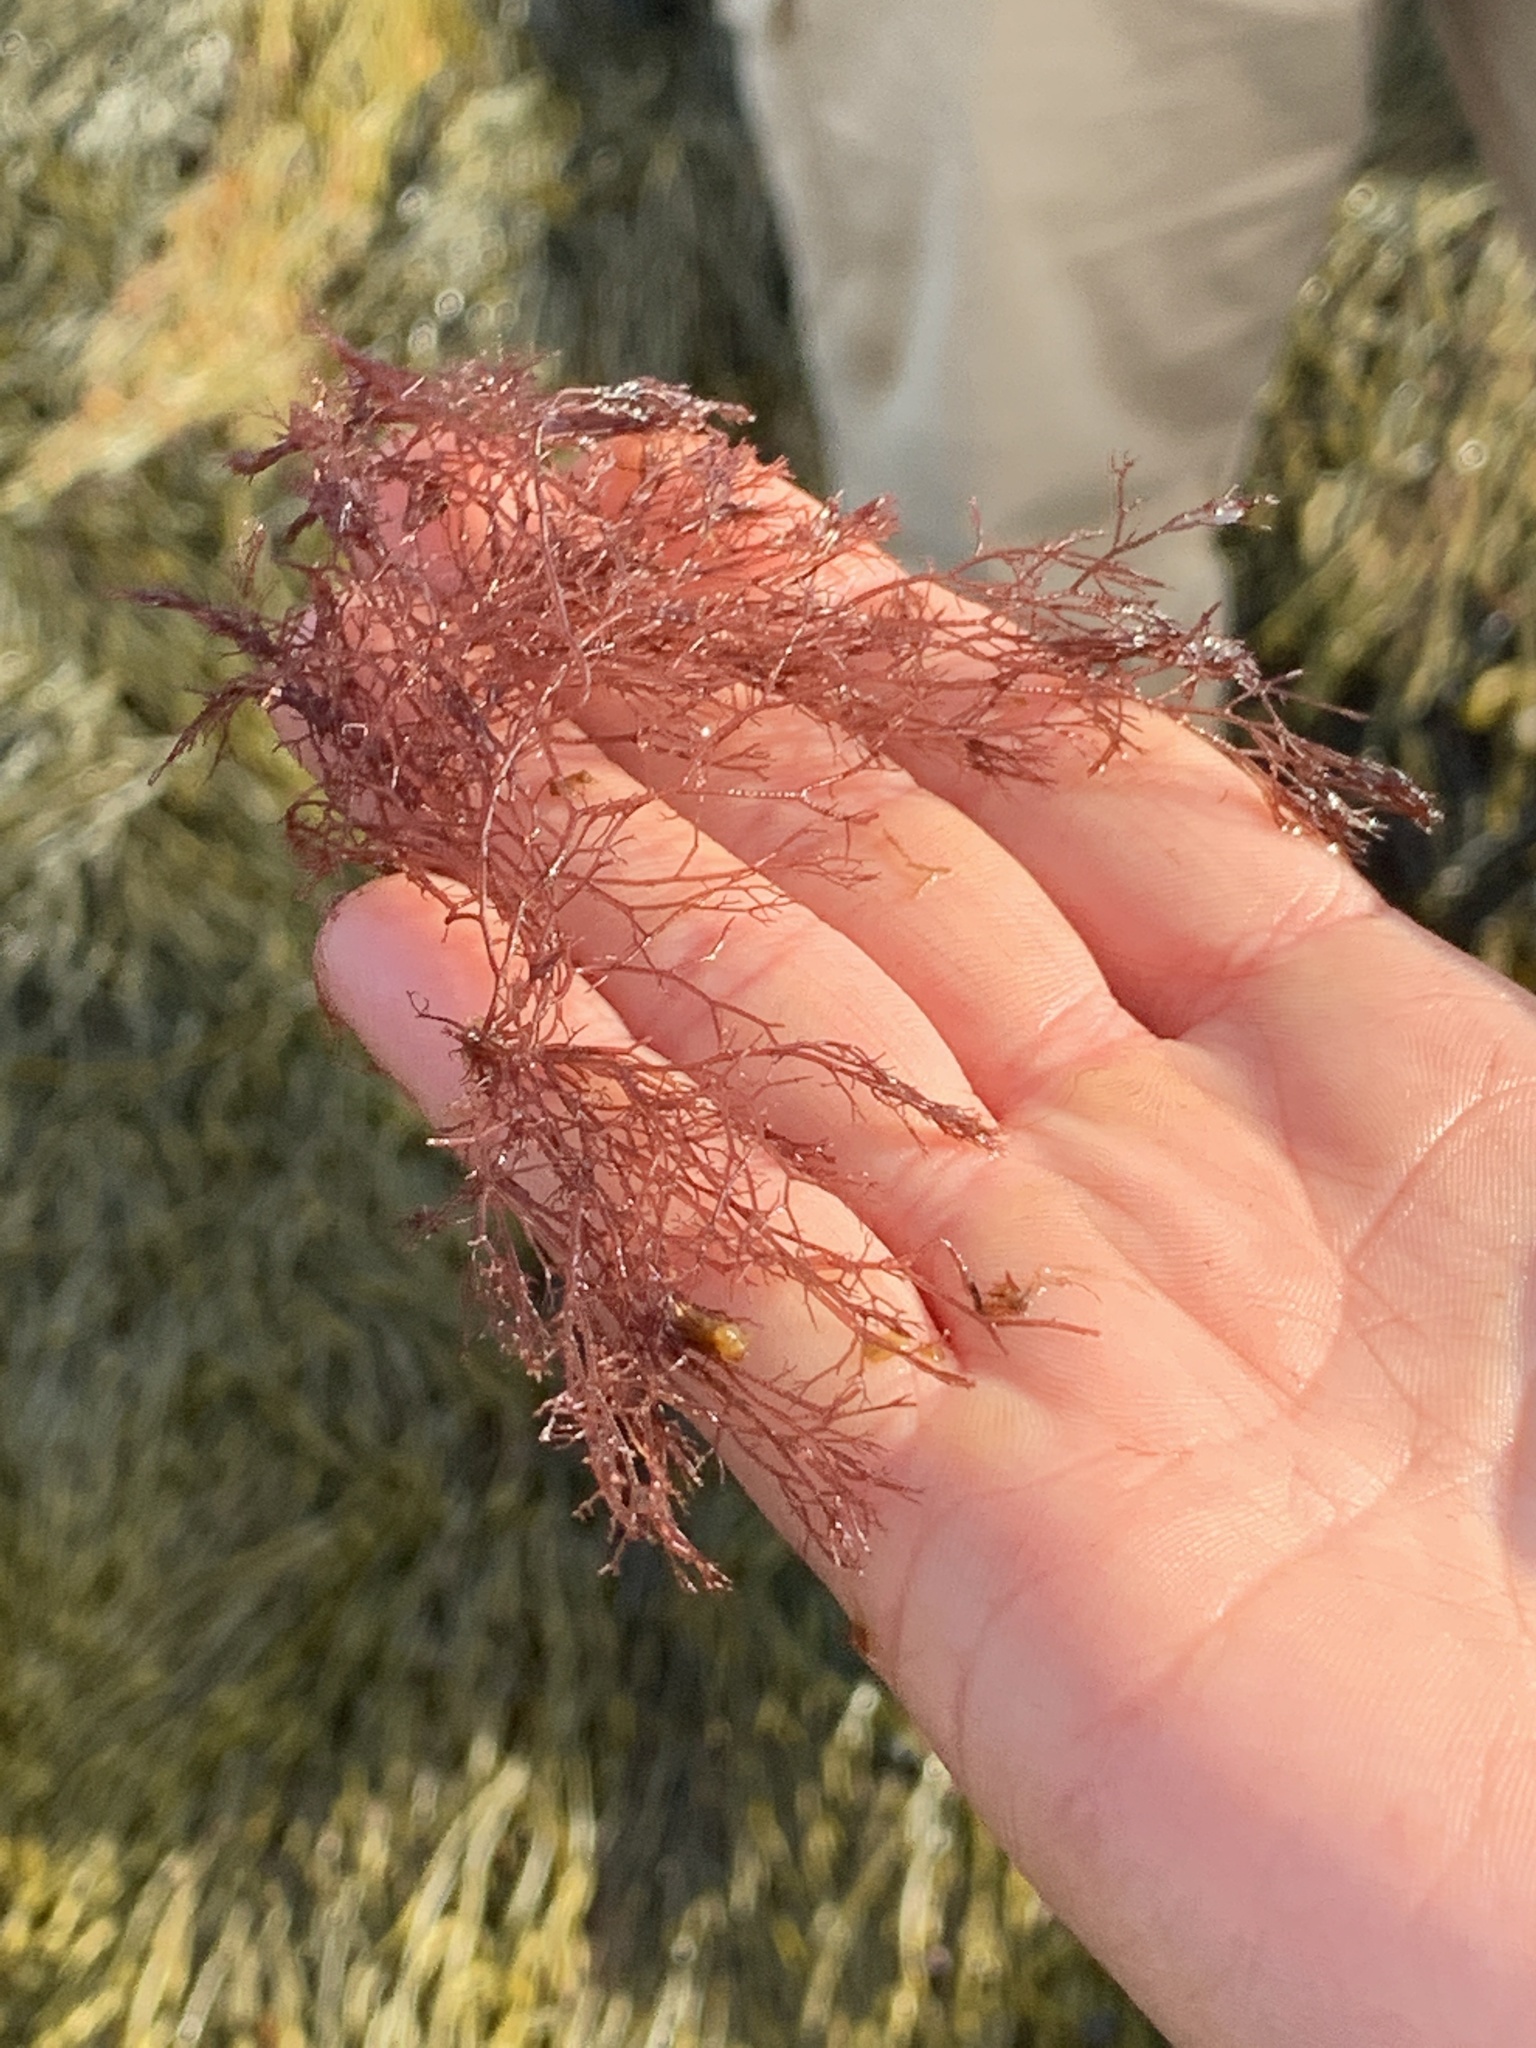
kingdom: Plantae
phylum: Rhodophyta
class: Florideophyceae
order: Ceramiales
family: Ceramiaceae
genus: Ceramium
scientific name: Ceramium virgatum
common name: Red hornweed
